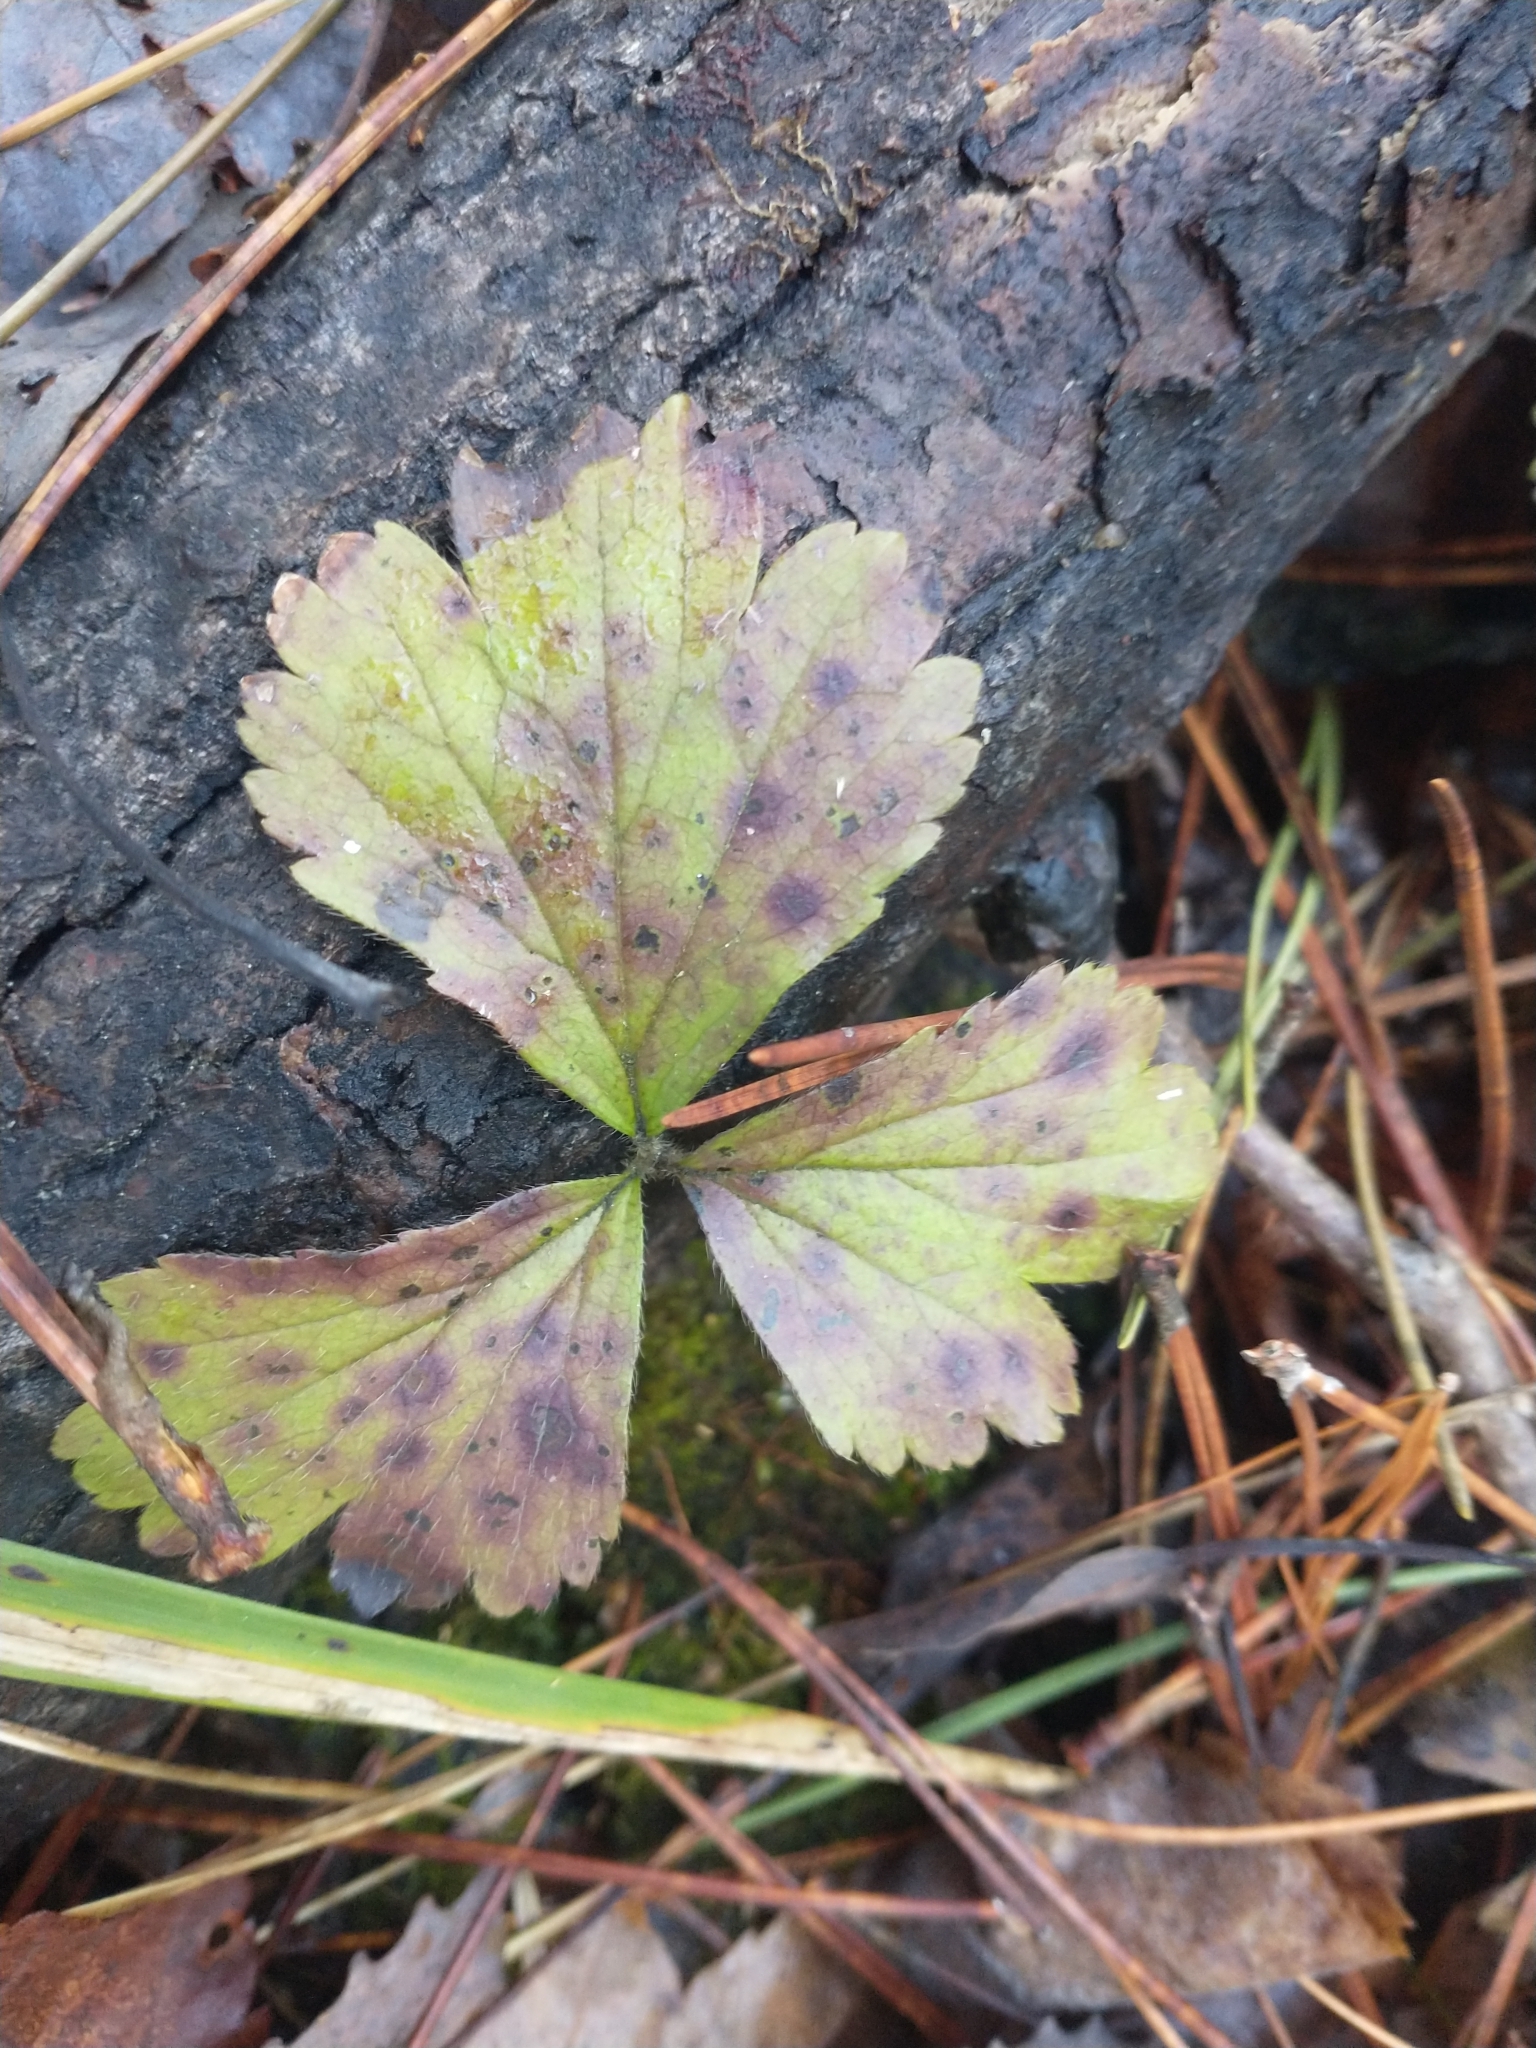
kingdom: Plantae
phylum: Tracheophyta
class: Magnoliopsida
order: Rosales
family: Rosaceae
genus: Geum
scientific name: Geum fragarioides
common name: Appalachian barren strawberry
